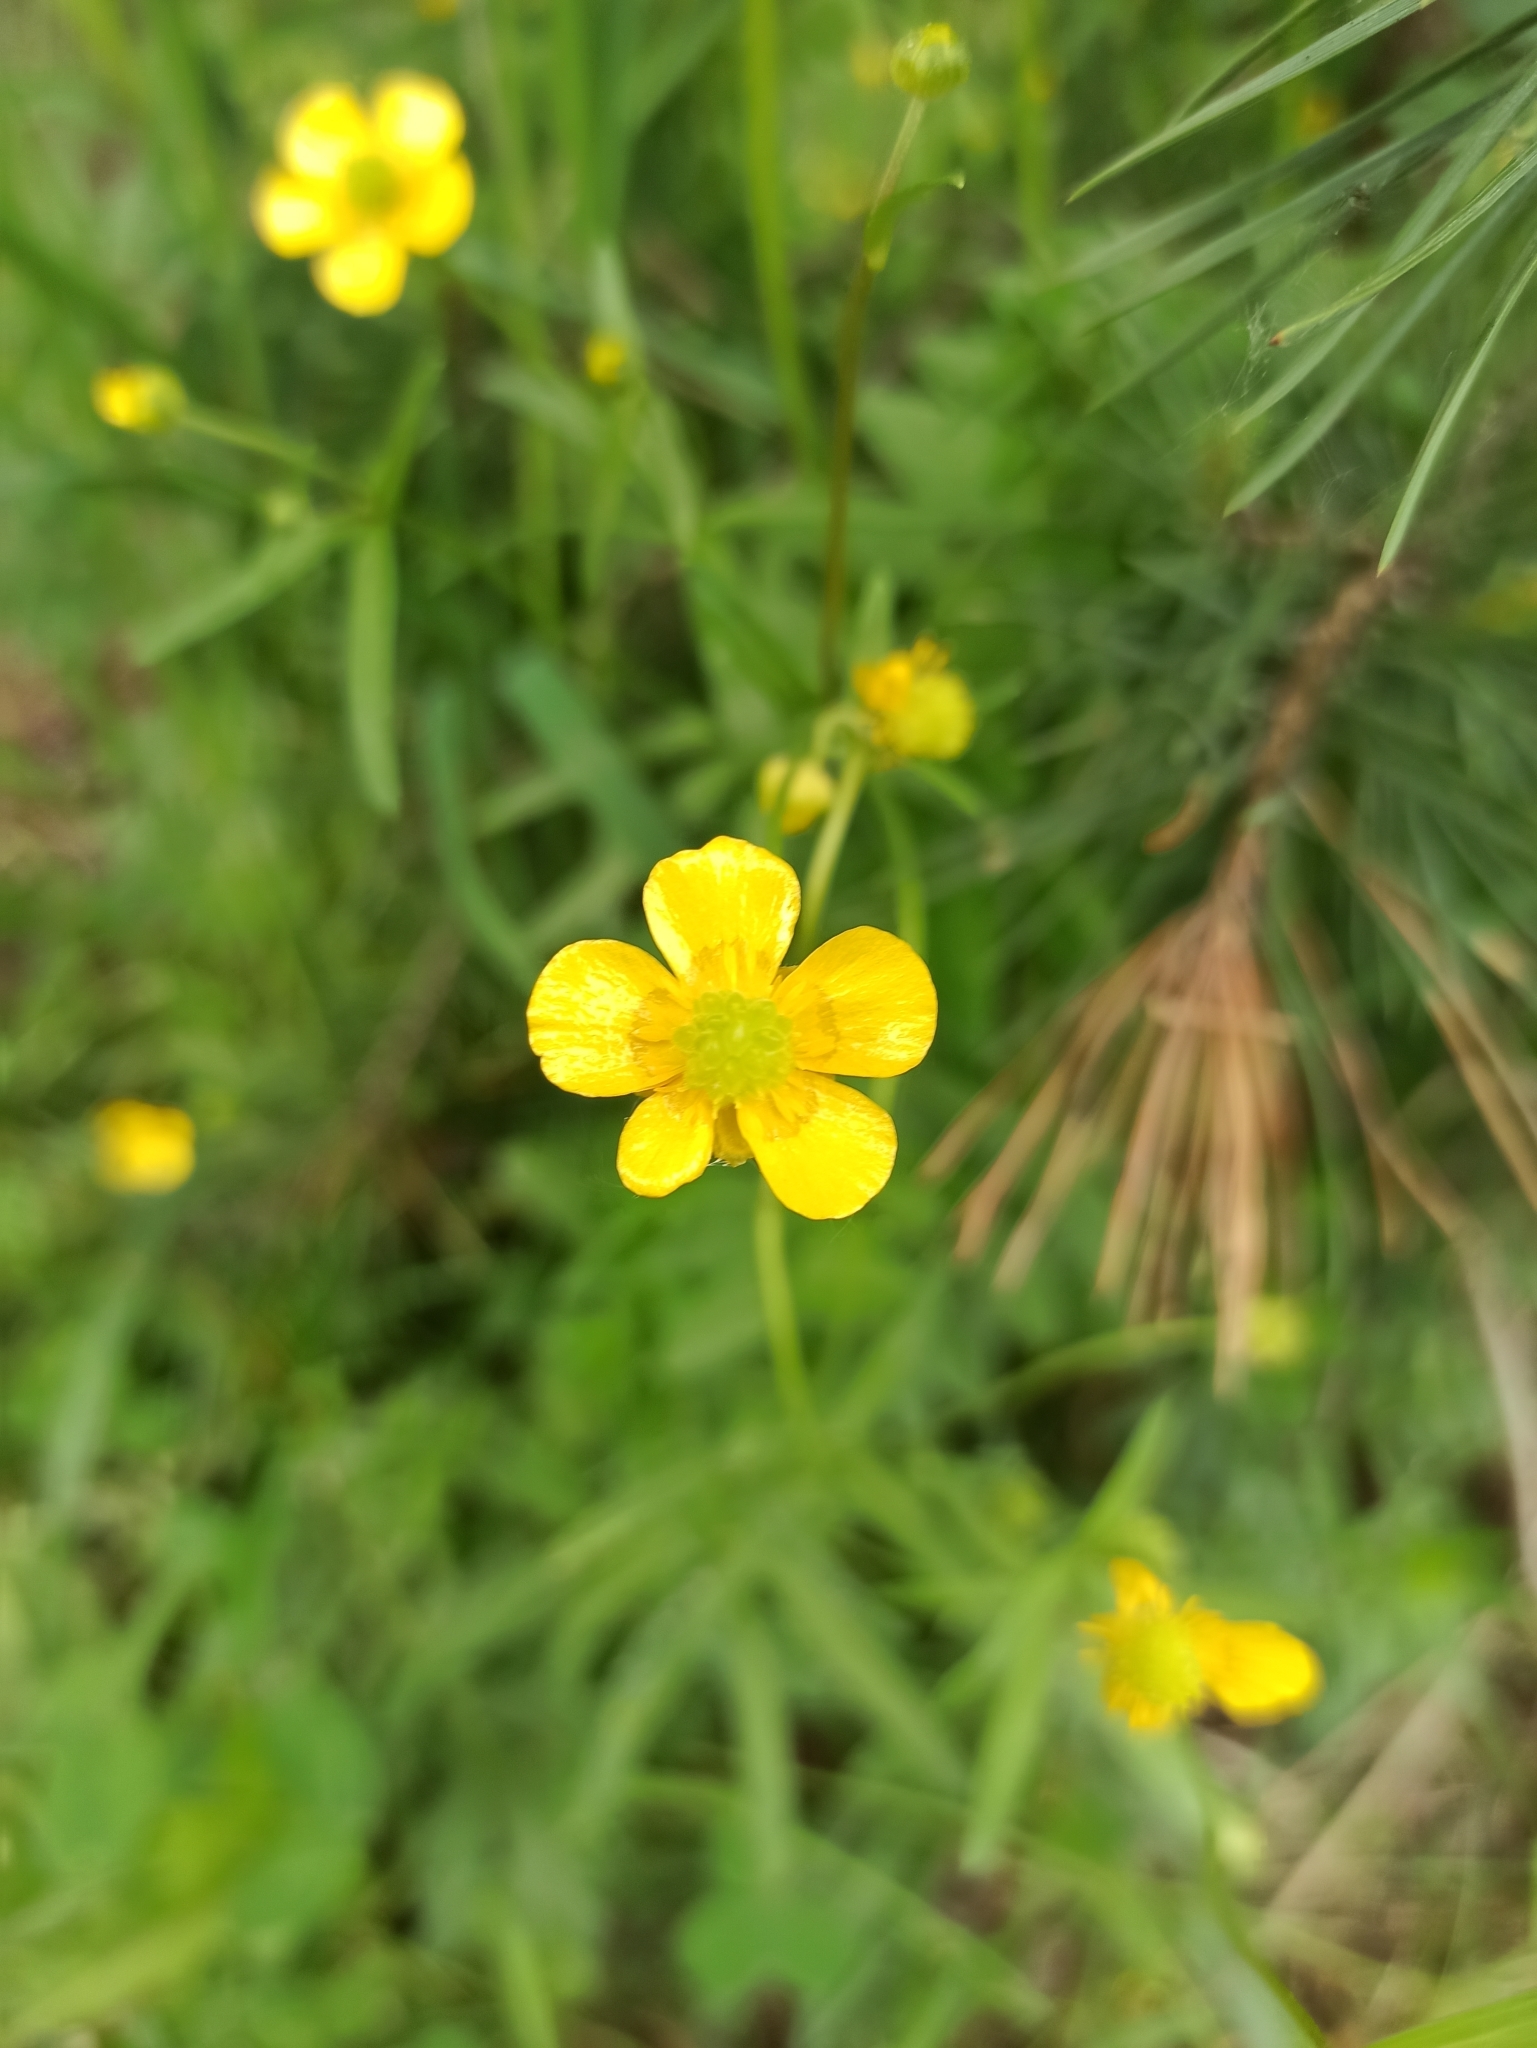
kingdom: Plantae
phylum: Tracheophyta
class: Magnoliopsida
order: Ranunculales
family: Ranunculaceae
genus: Ranunculus
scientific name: Ranunculus auricomus
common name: Goldilocks buttercup
